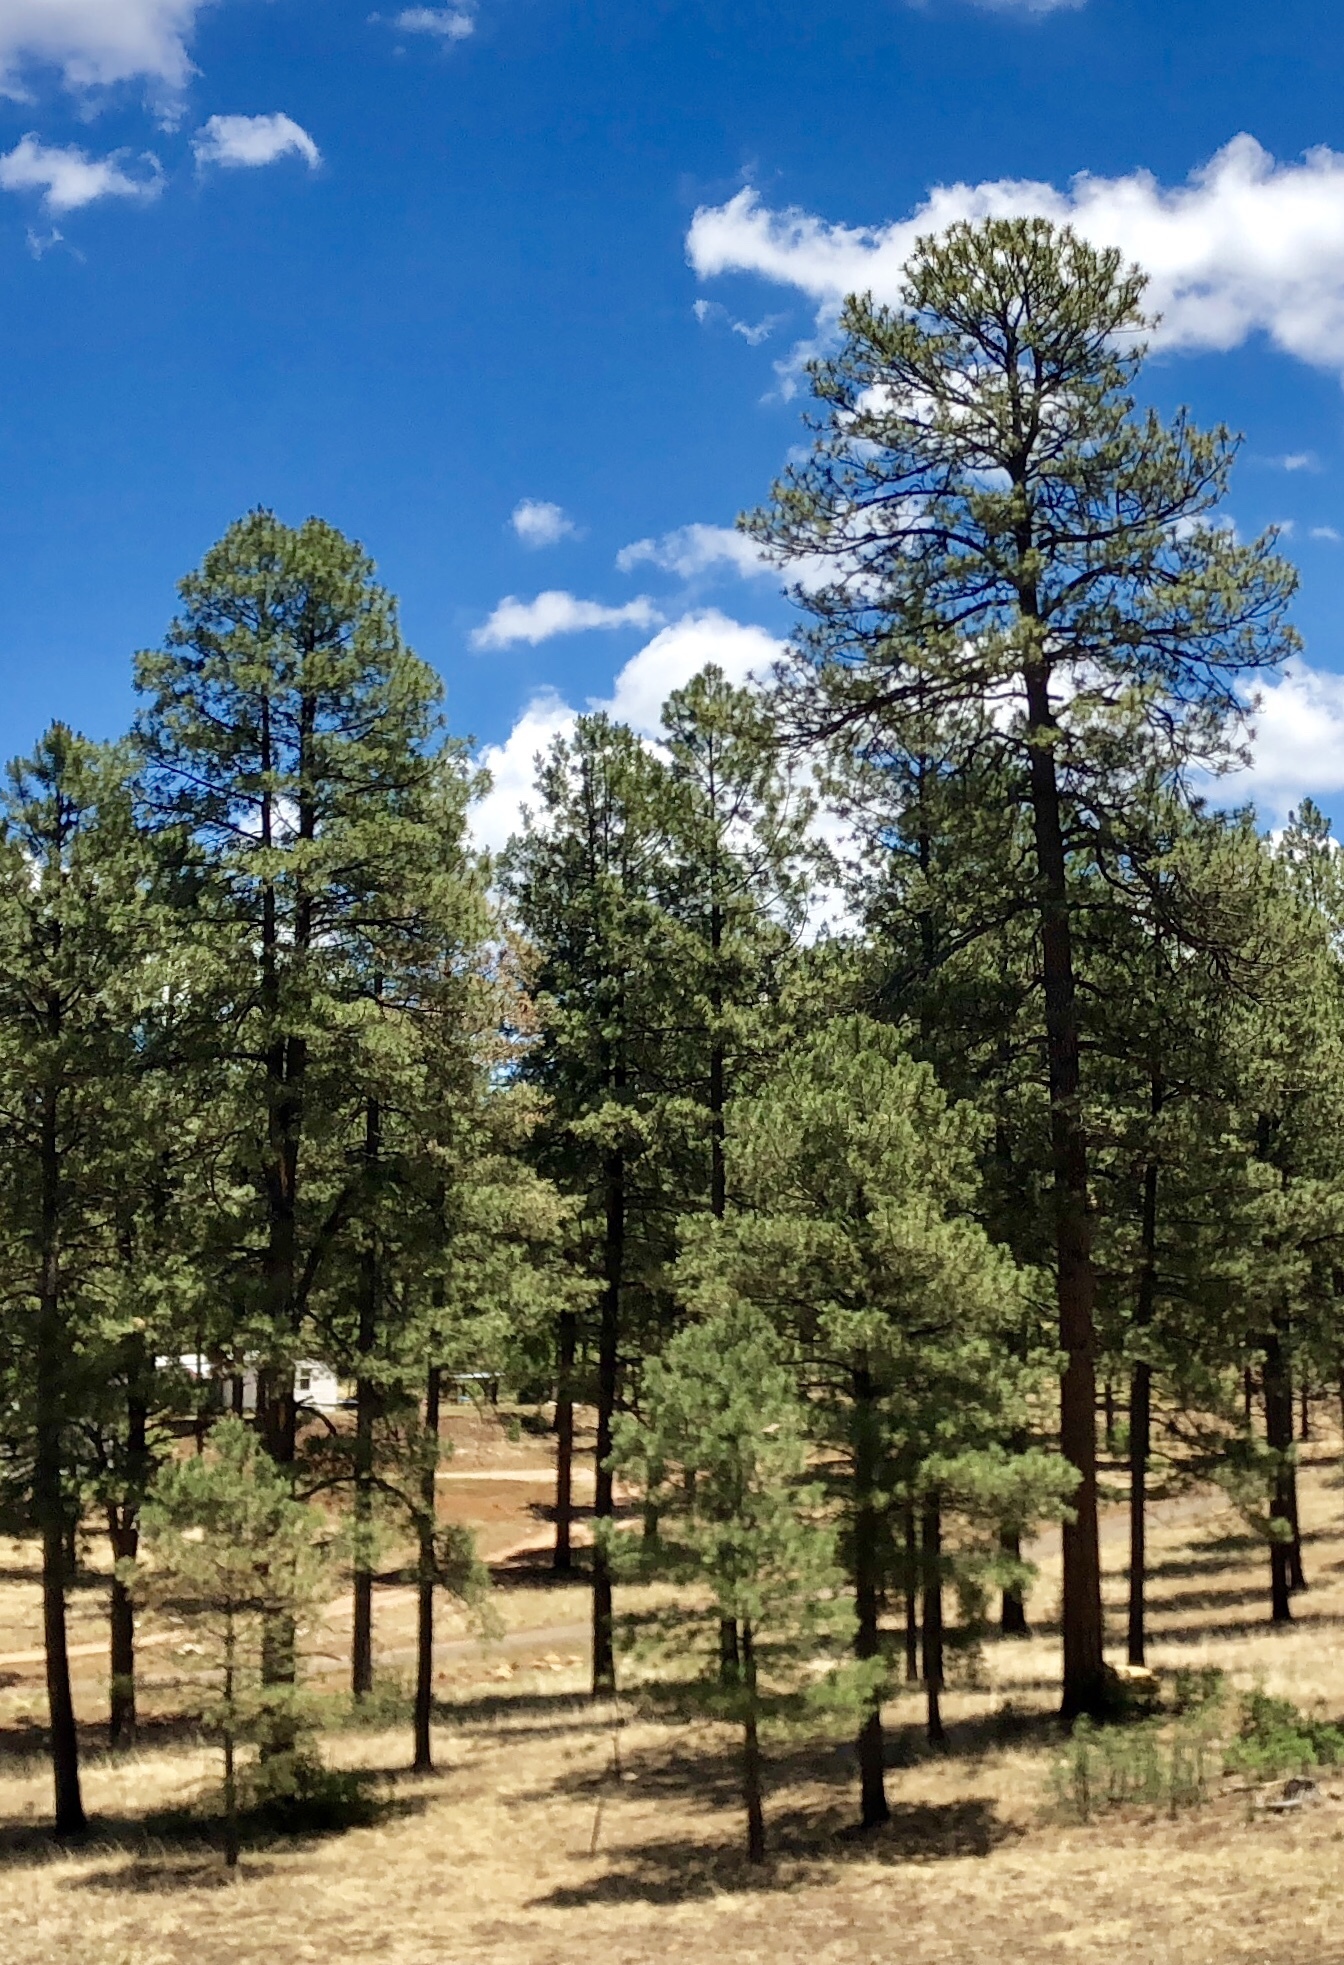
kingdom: Plantae
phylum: Tracheophyta
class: Pinopsida
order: Pinales
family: Pinaceae
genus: Pinus
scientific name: Pinus ponderosa
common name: Western yellow-pine
